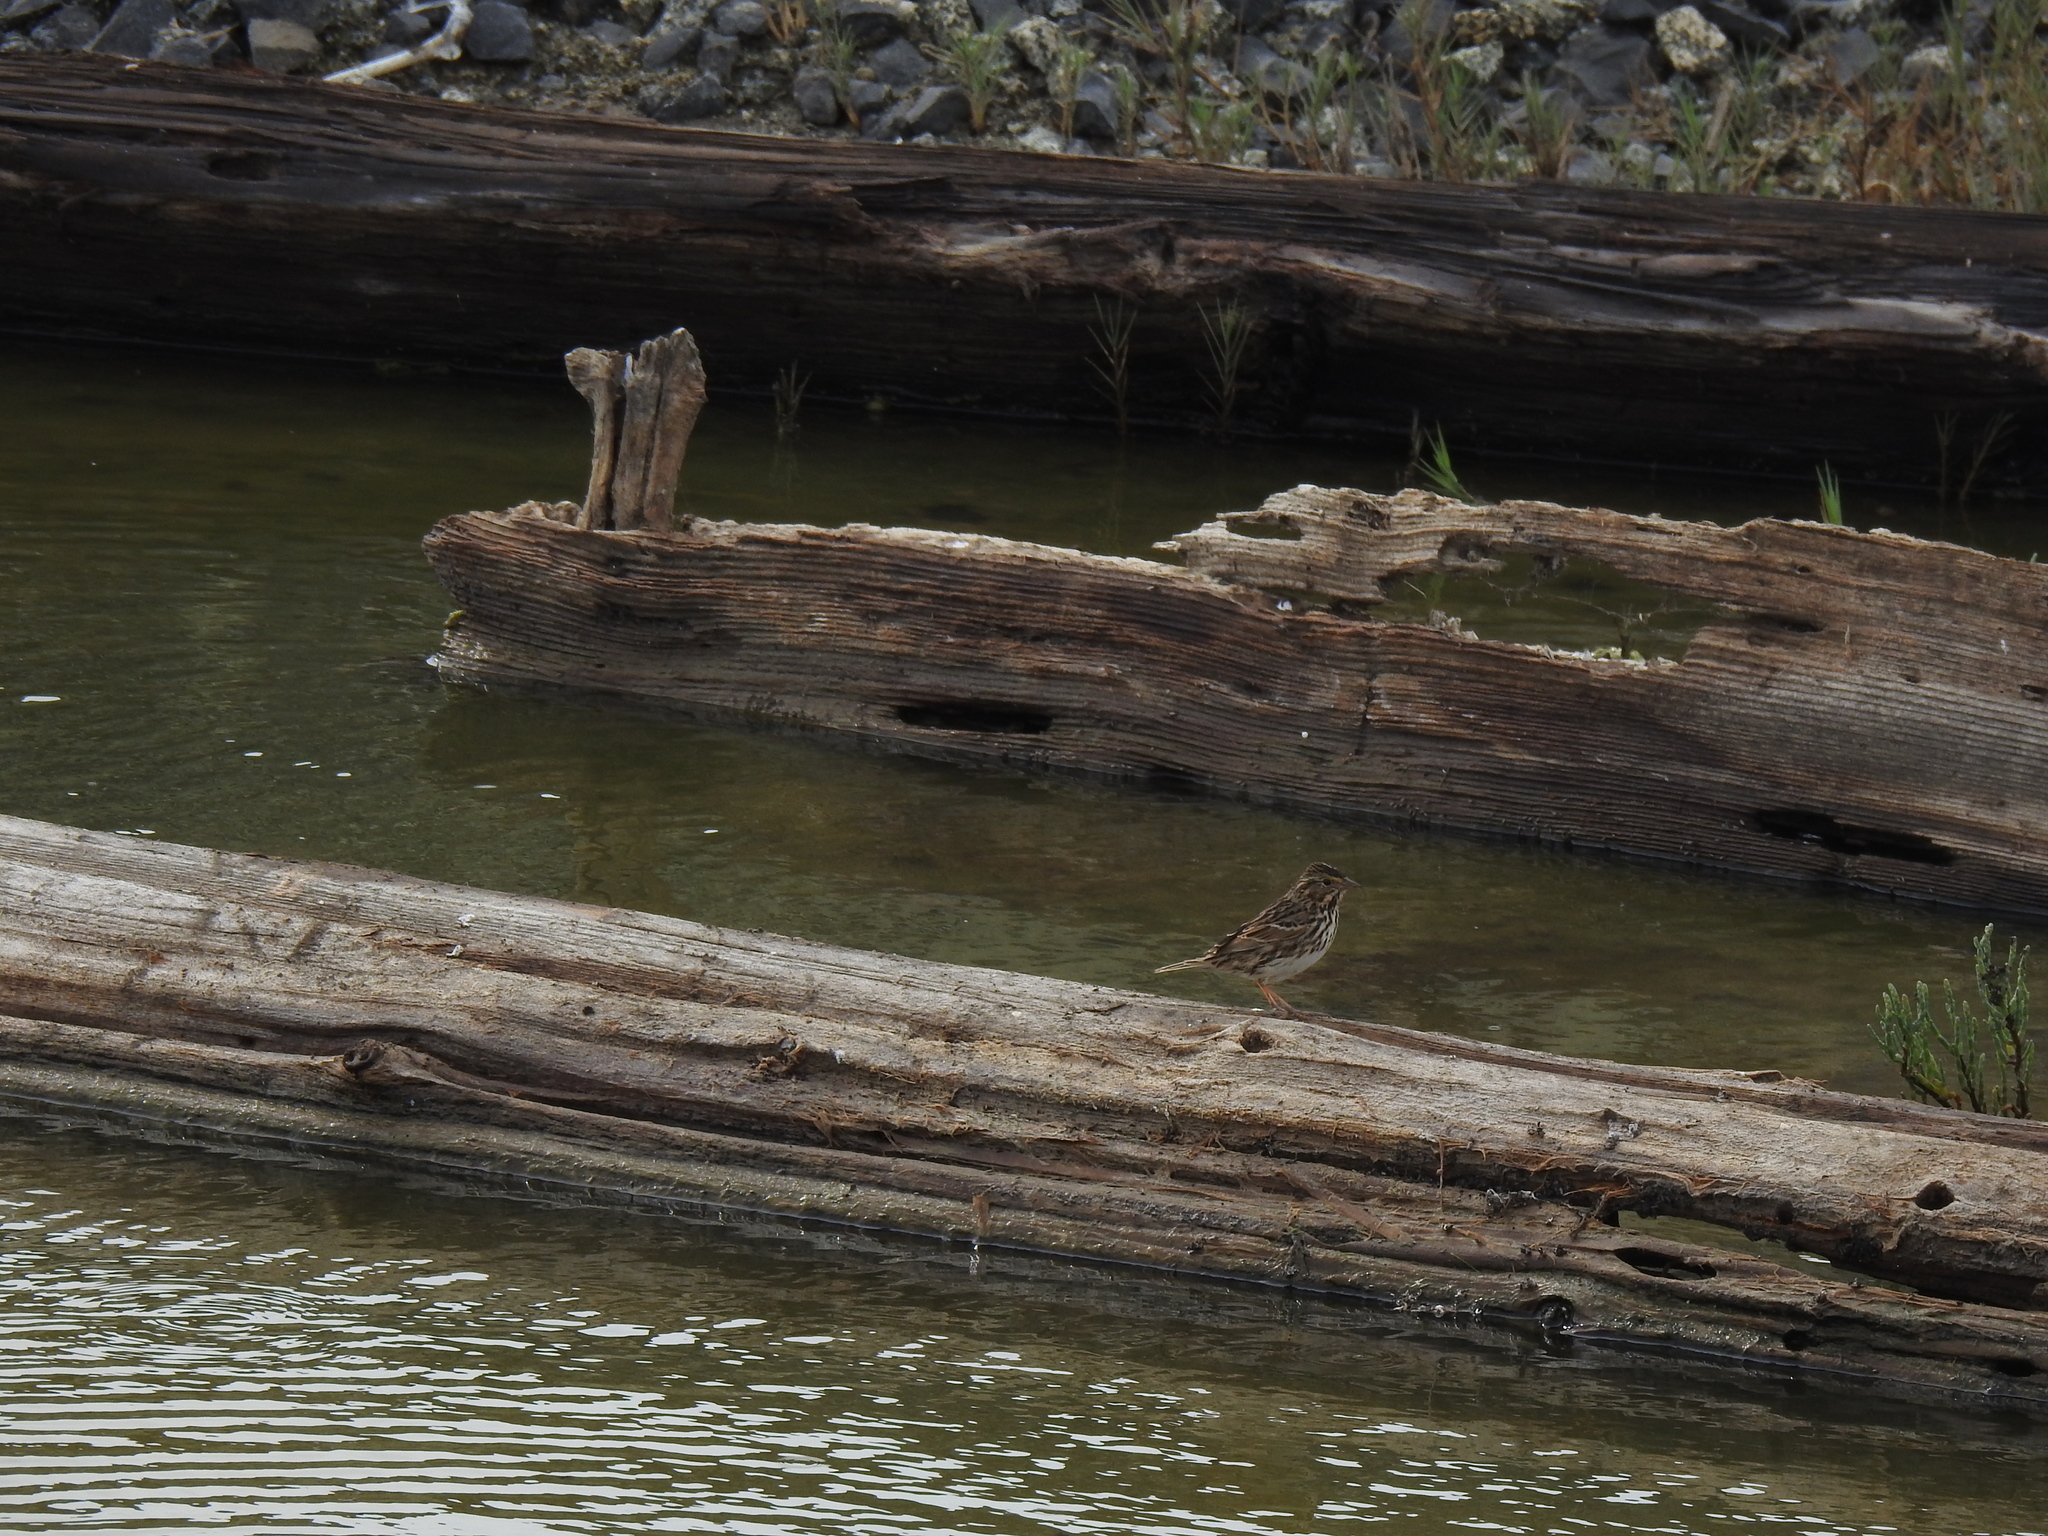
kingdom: Animalia
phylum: Chordata
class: Aves
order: Passeriformes
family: Passerellidae
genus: Passerculus
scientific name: Passerculus sandwichensis
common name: Savannah sparrow
